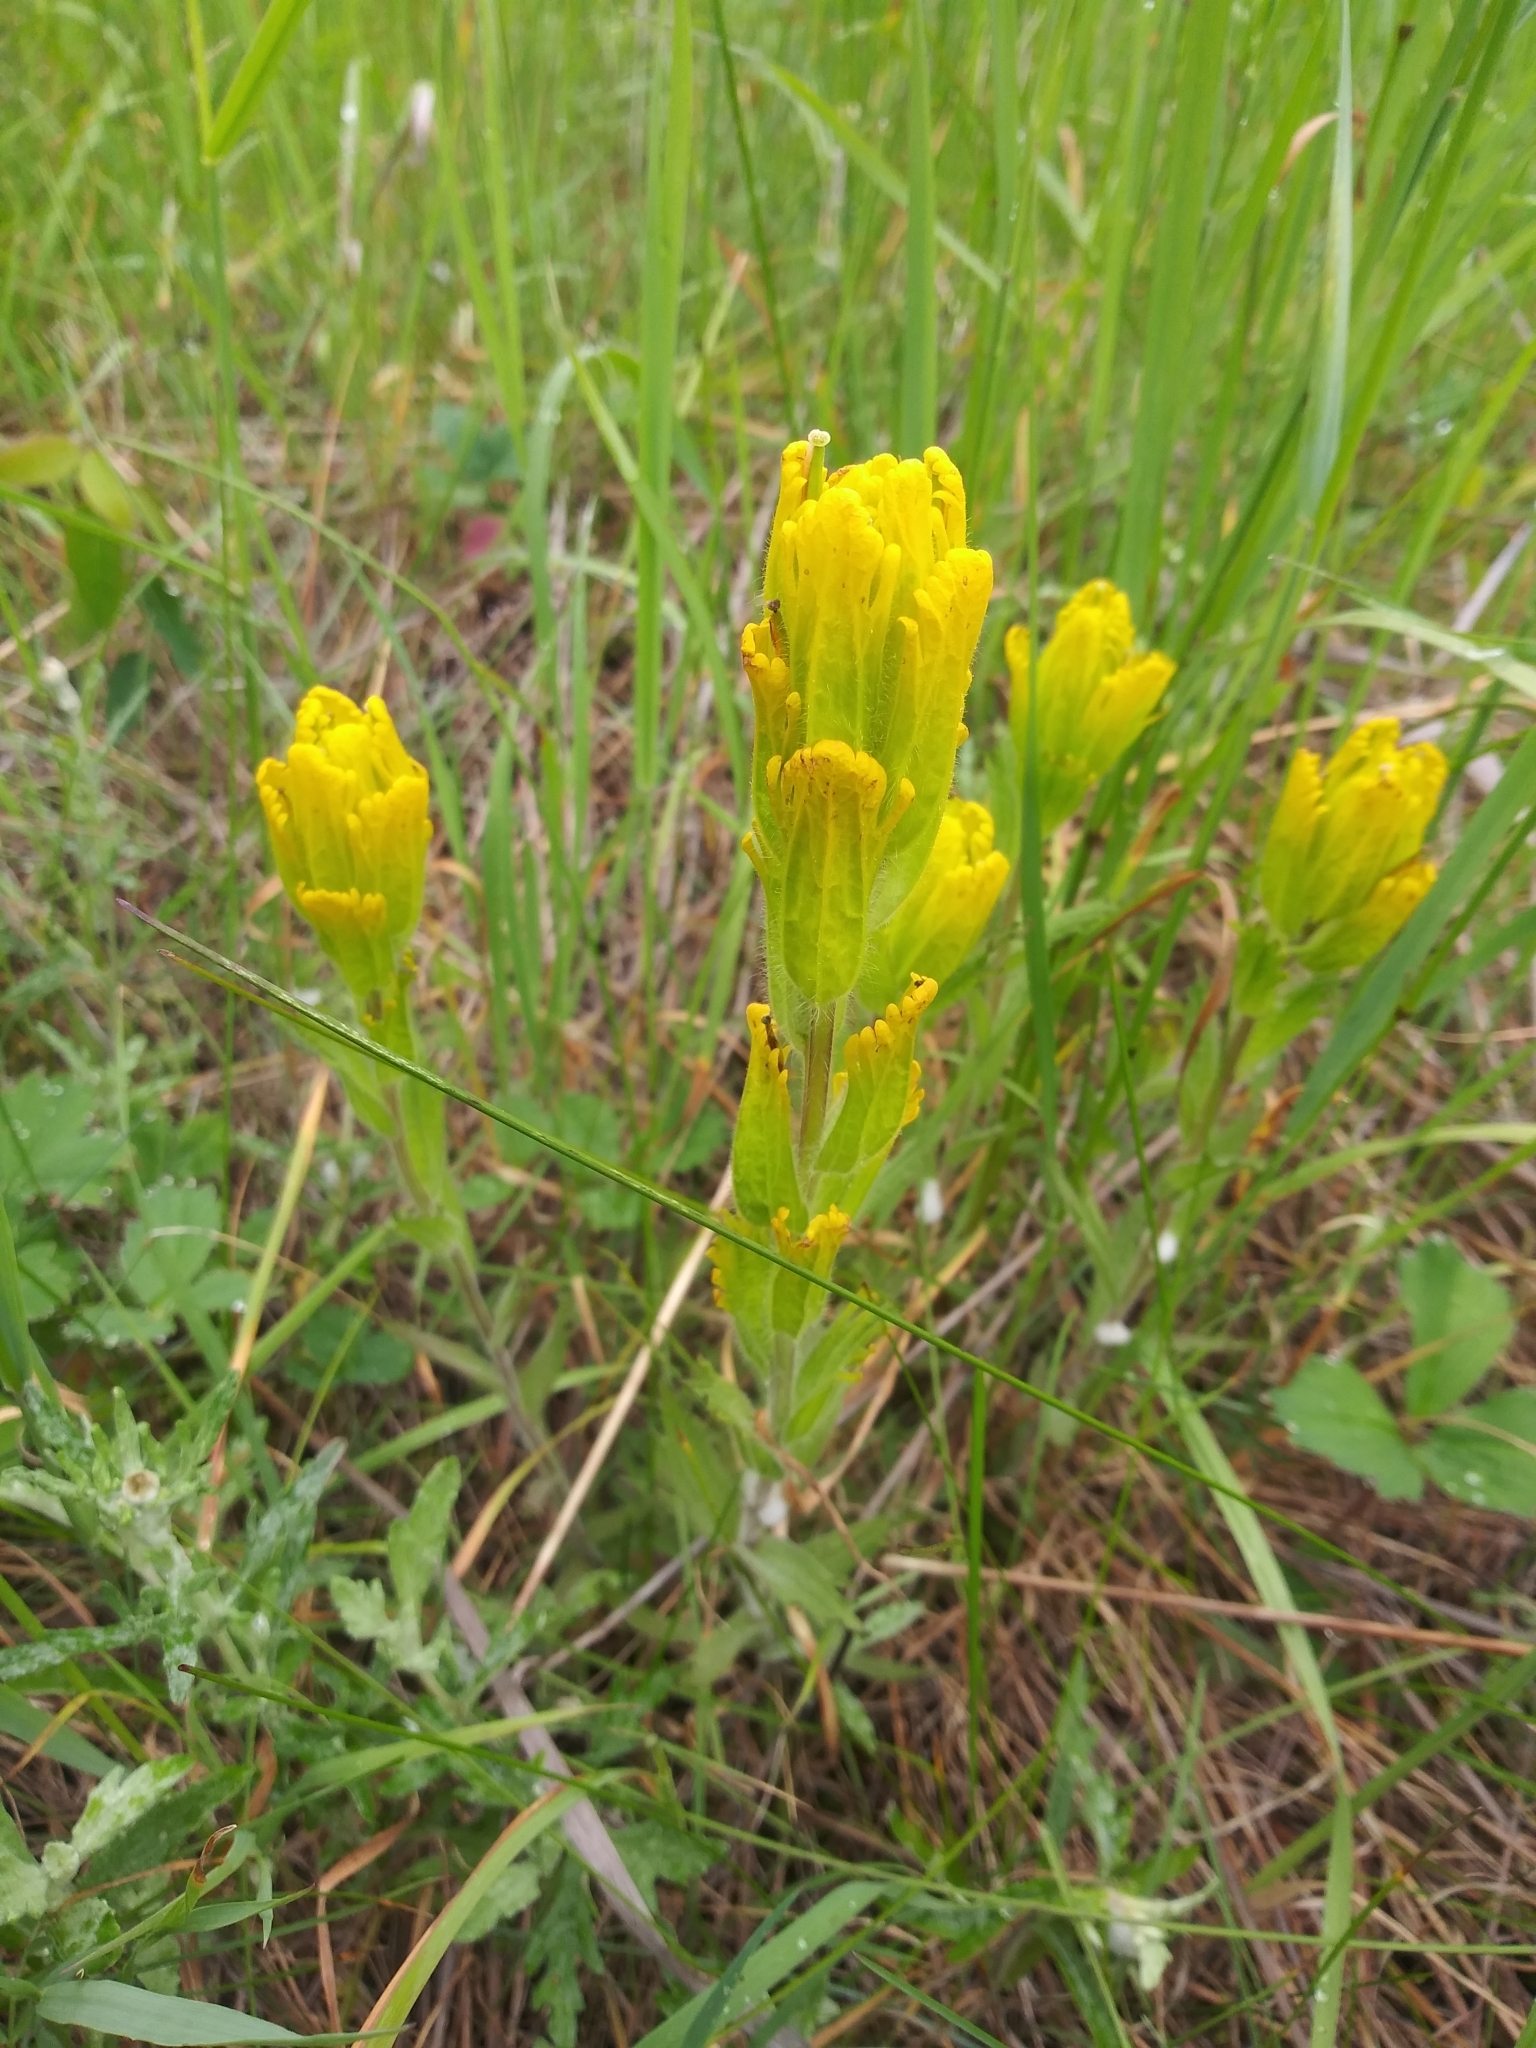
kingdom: Plantae
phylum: Tracheophyta
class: Magnoliopsida
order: Lamiales
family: Orobanchaceae
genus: Castilleja
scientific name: Castilleja levisecta
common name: Golden paintbrush
